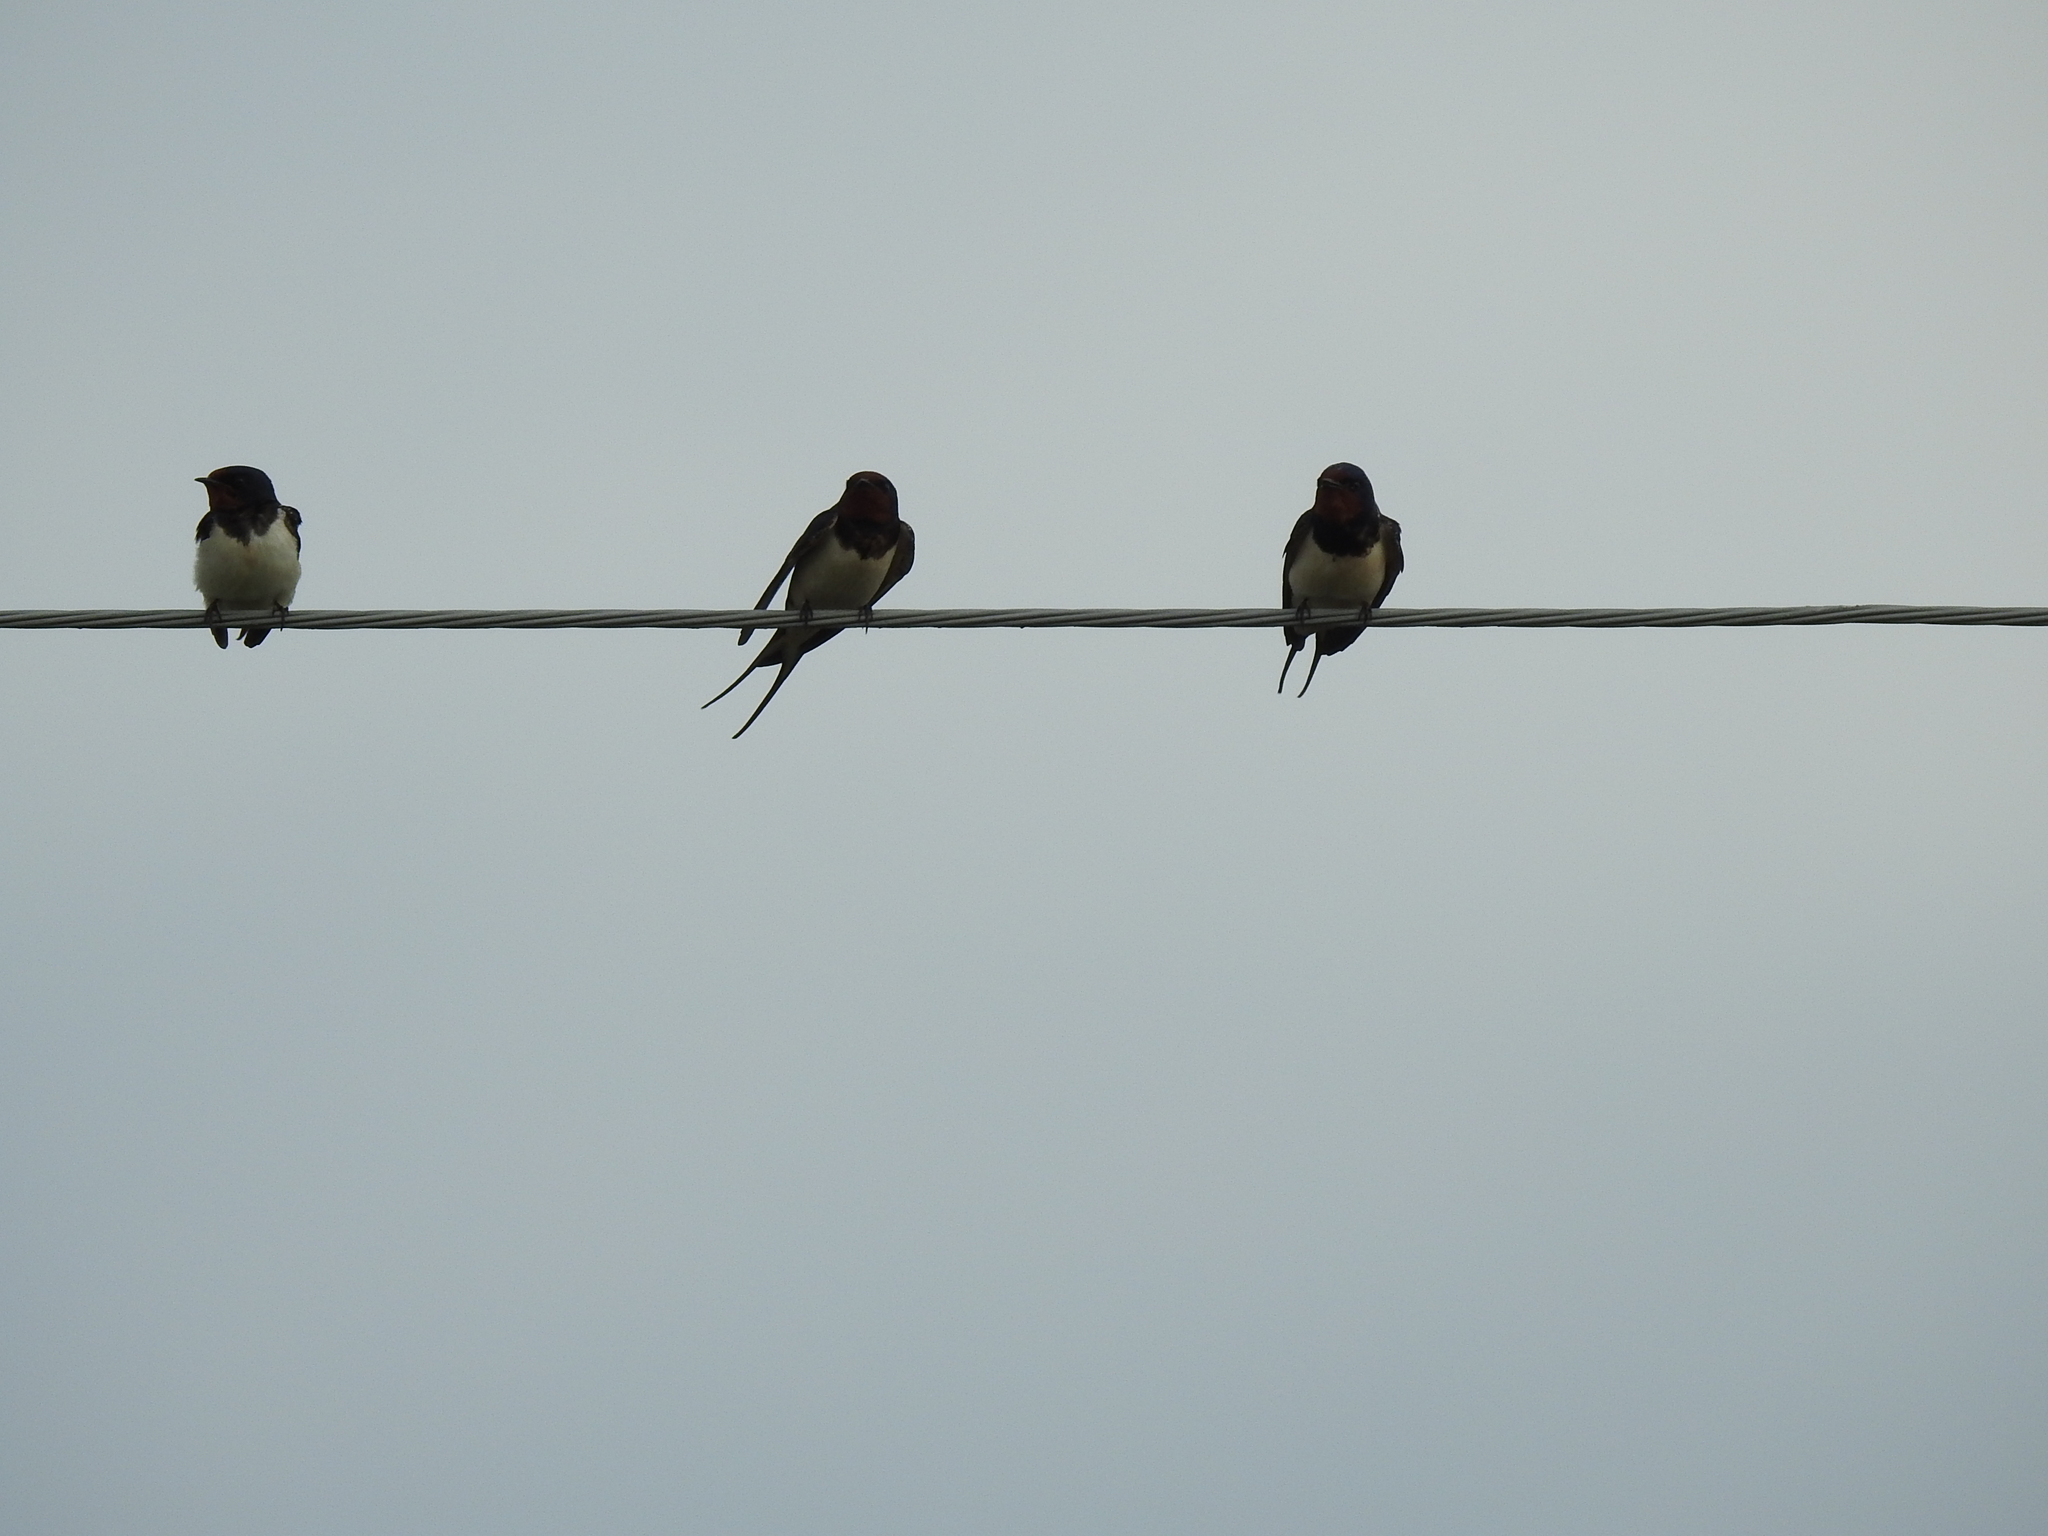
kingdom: Animalia
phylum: Chordata
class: Aves
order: Passeriformes
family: Hirundinidae
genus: Hirundo
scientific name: Hirundo rustica
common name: Barn swallow
